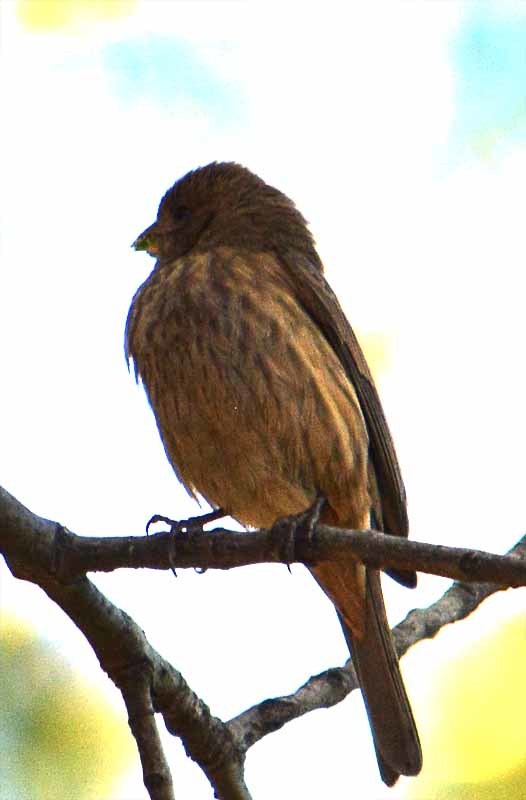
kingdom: Animalia
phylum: Chordata
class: Aves
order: Passeriformes
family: Fringillidae
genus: Haemorhous
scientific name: Haemorhous mexicanus
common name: House finch
